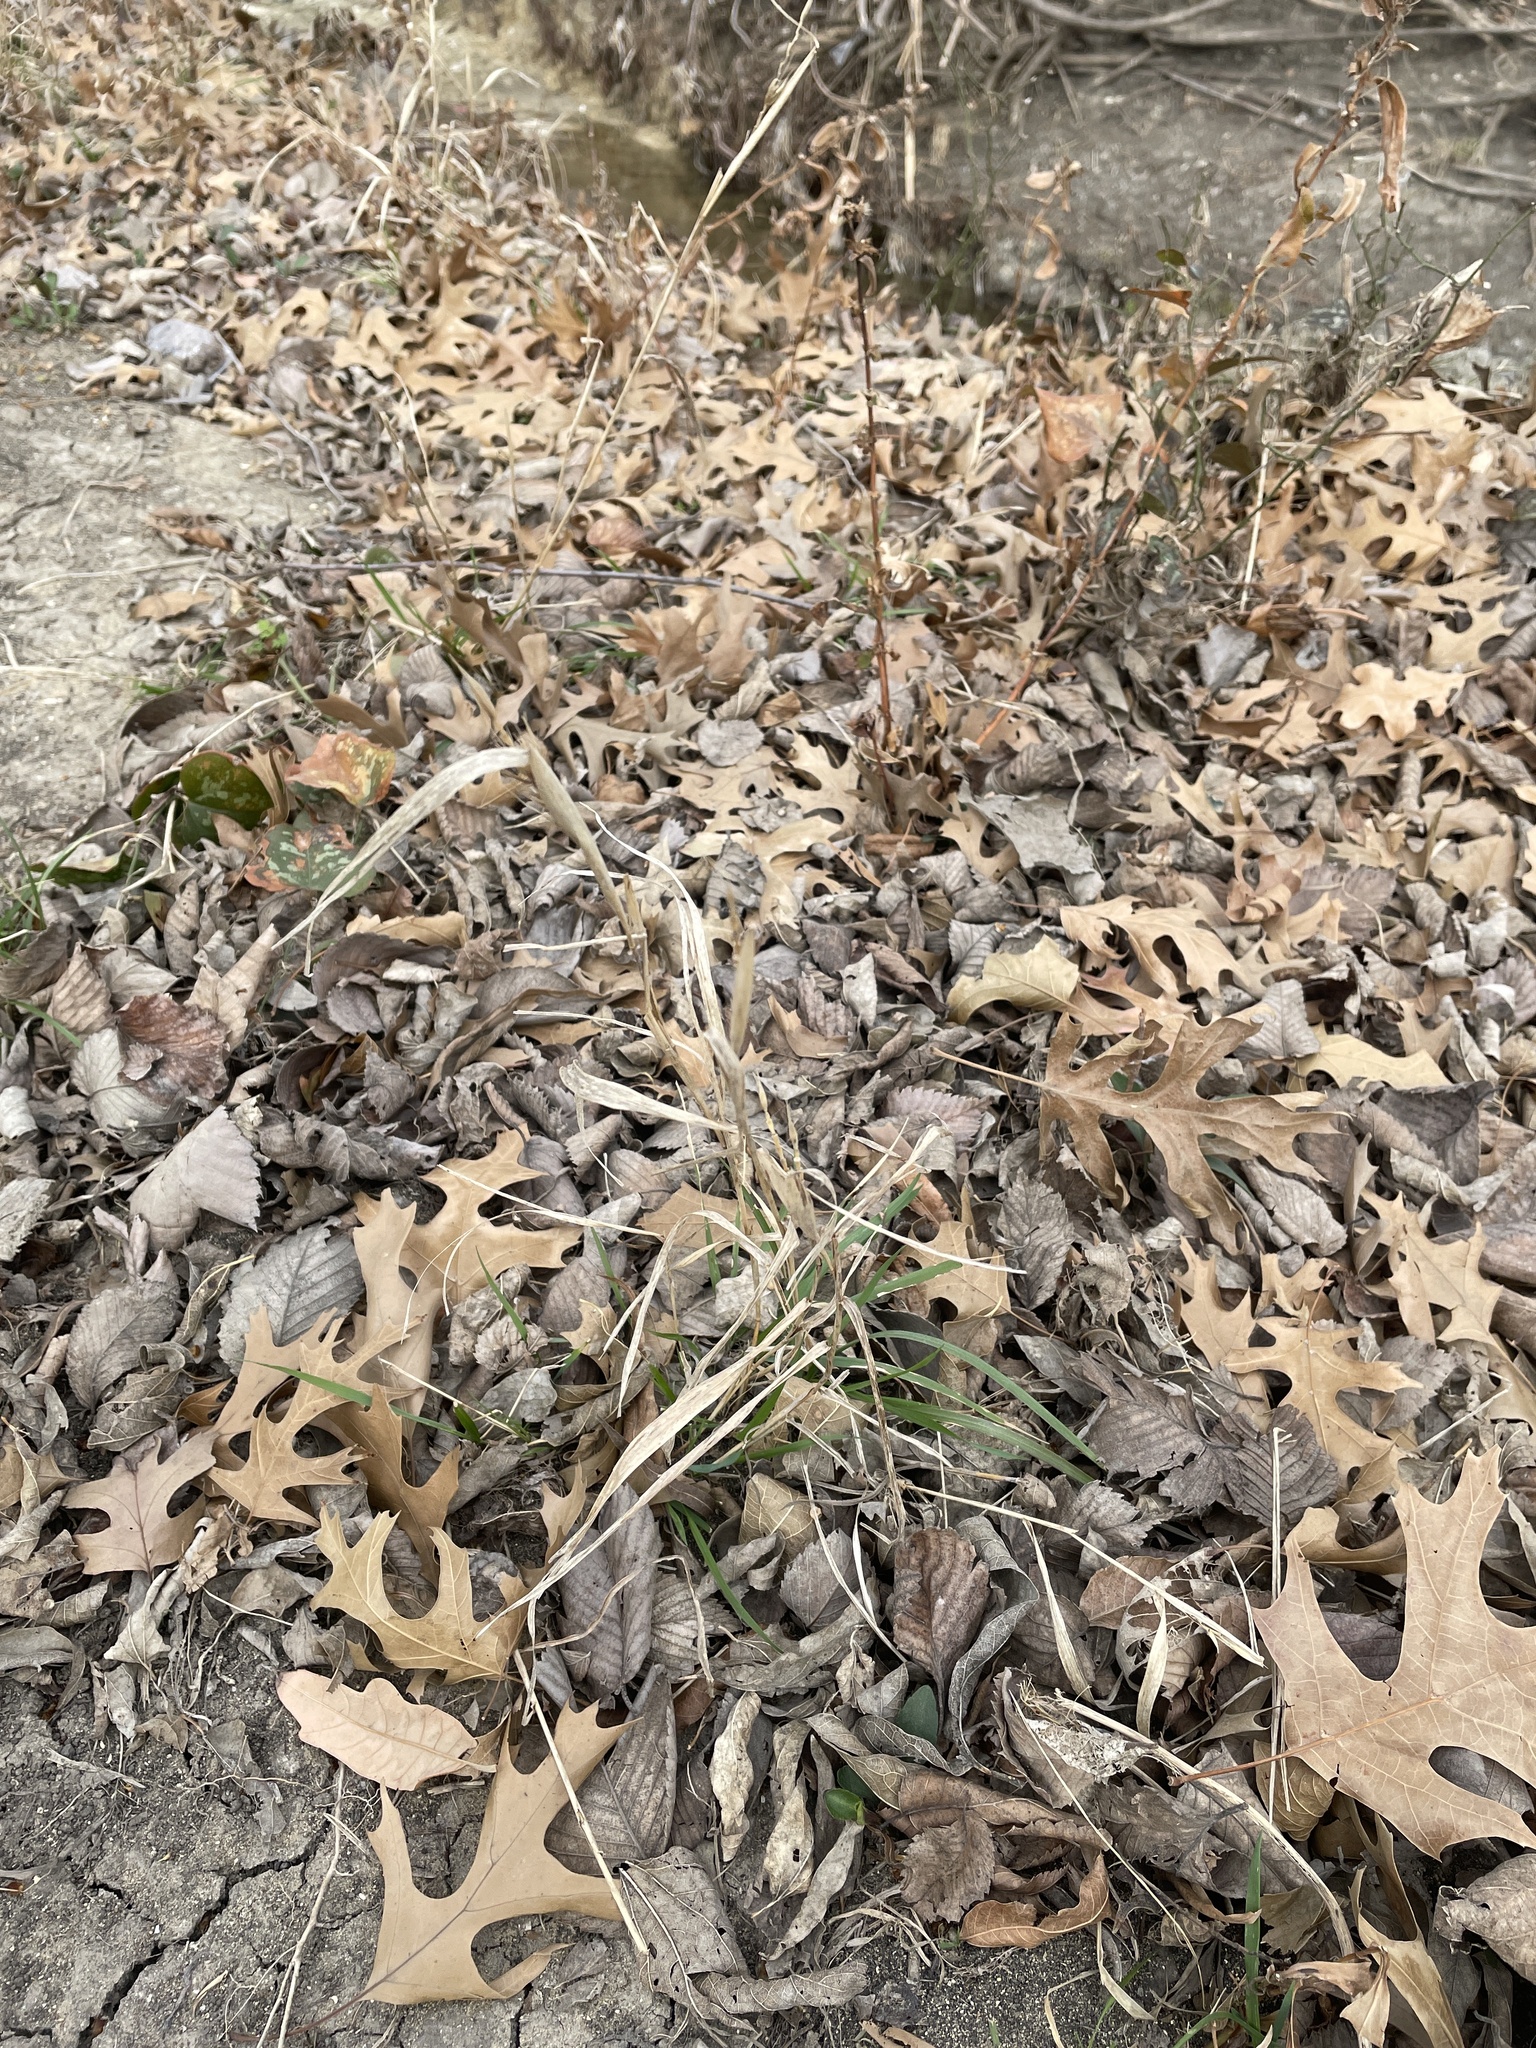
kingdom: Plantae
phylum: Tracheophyta
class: Liliopsida
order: Poales
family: Poaceae
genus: Elymus
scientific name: Elymus virginicus
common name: Common eastern wildrye
